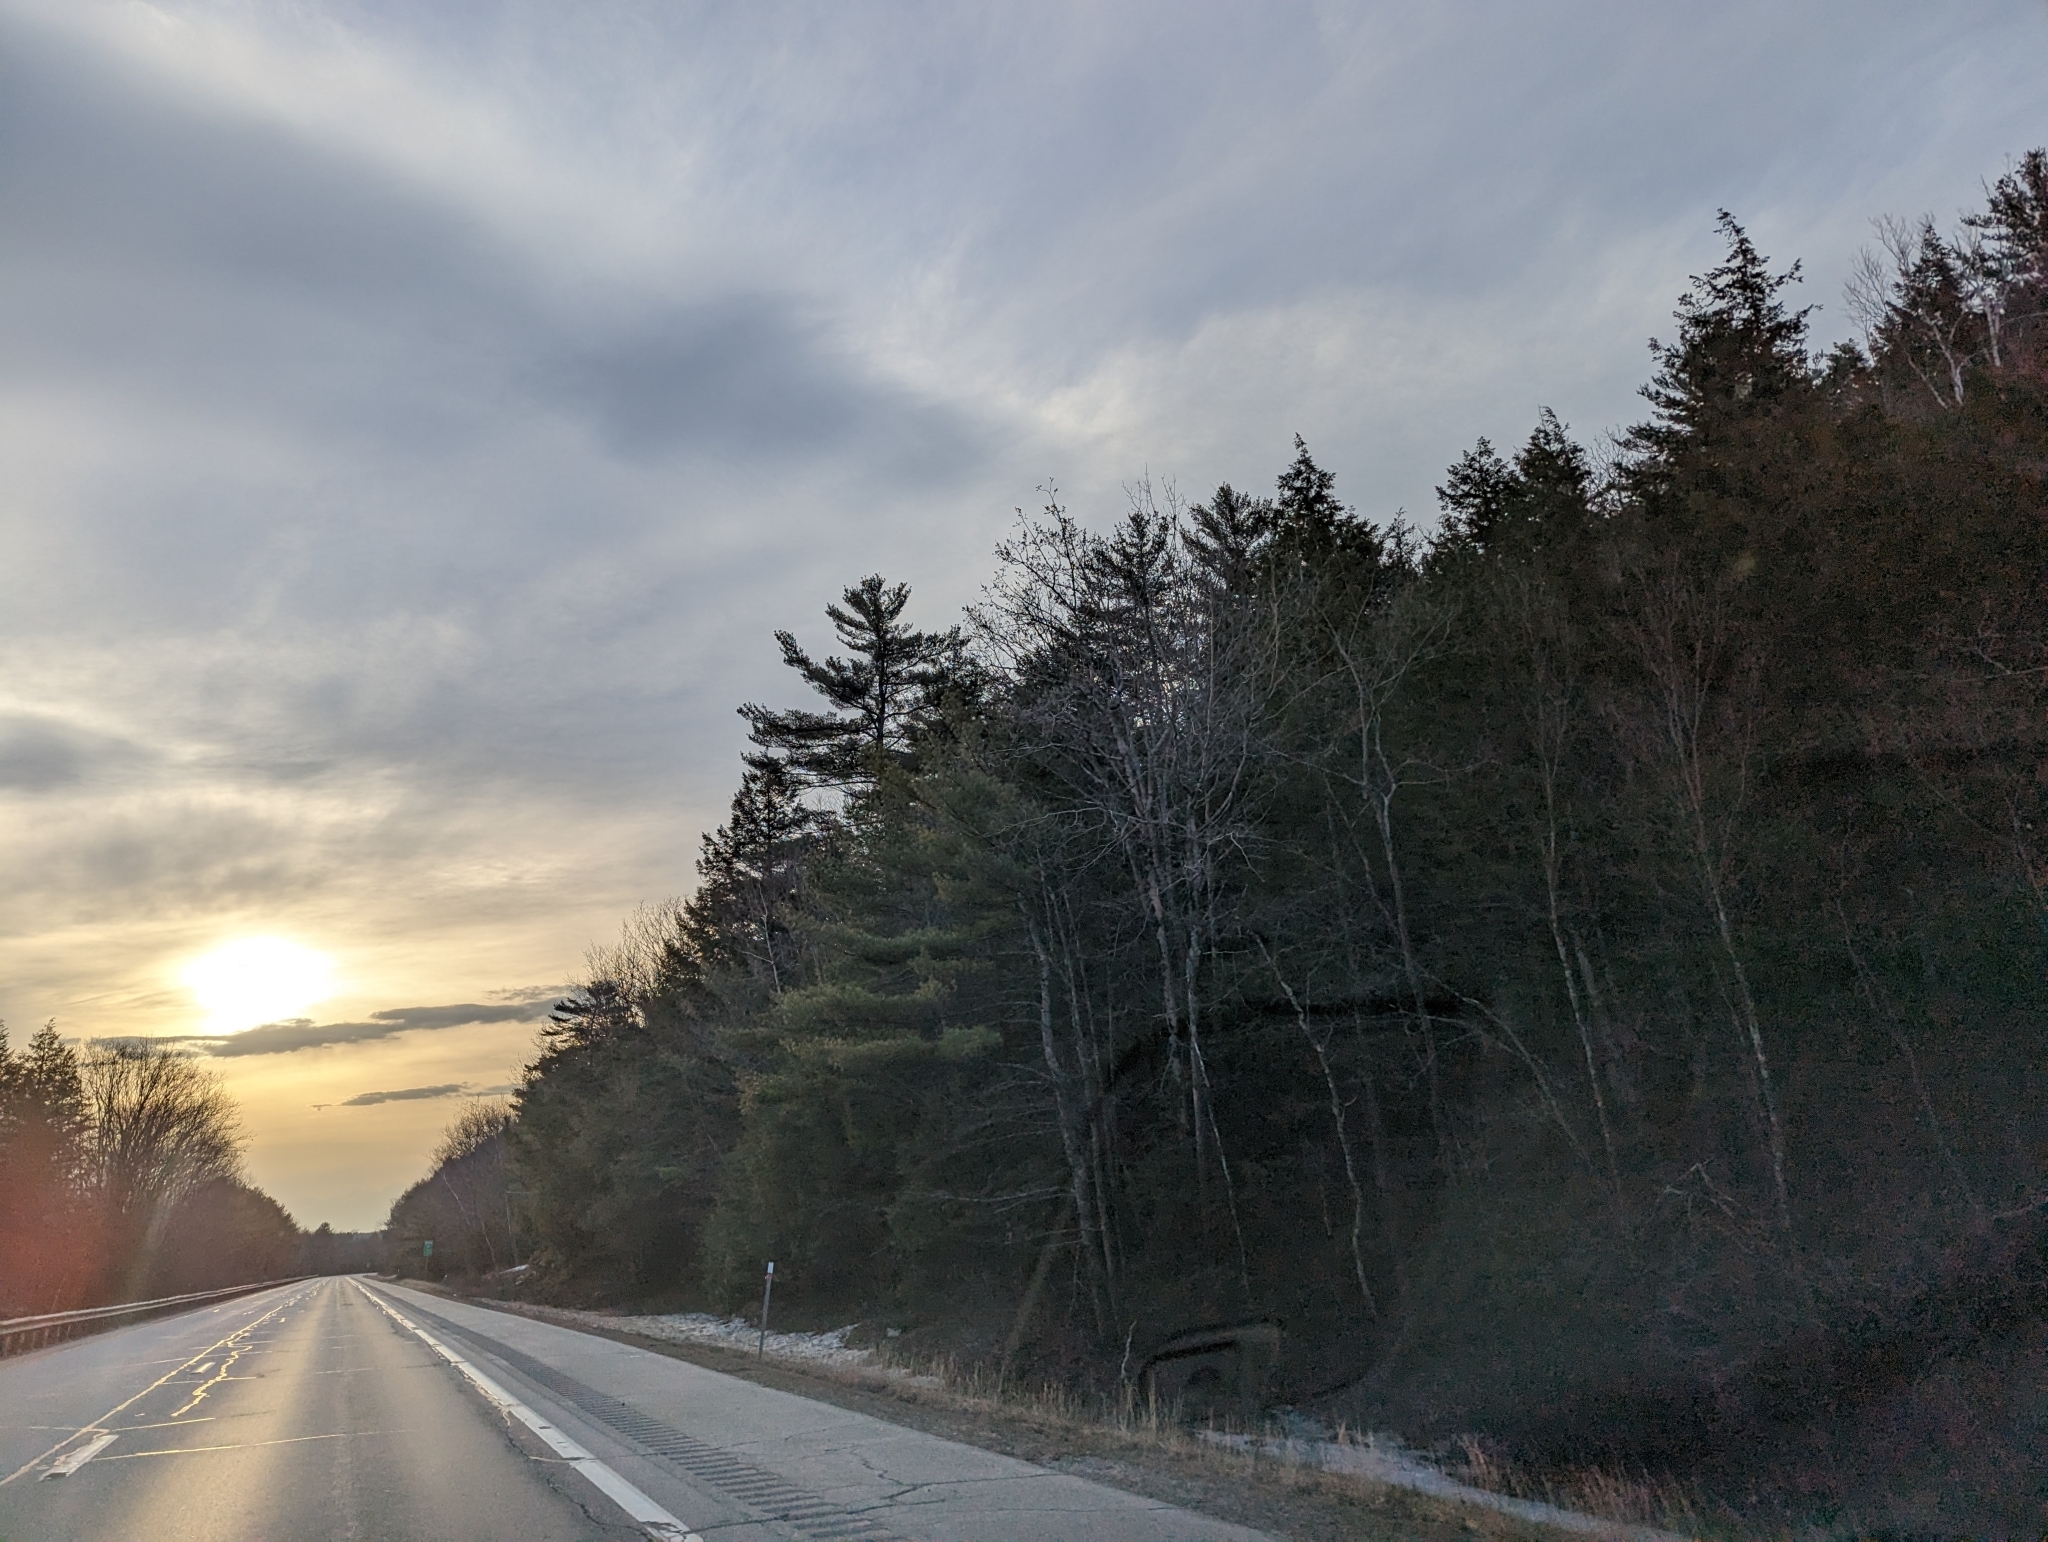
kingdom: Plantae
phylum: Tracheophyta
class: Pinopsida
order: Pinales
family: Pinaceae
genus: Pinus
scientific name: Pinus strobus
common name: Weymouth pine
